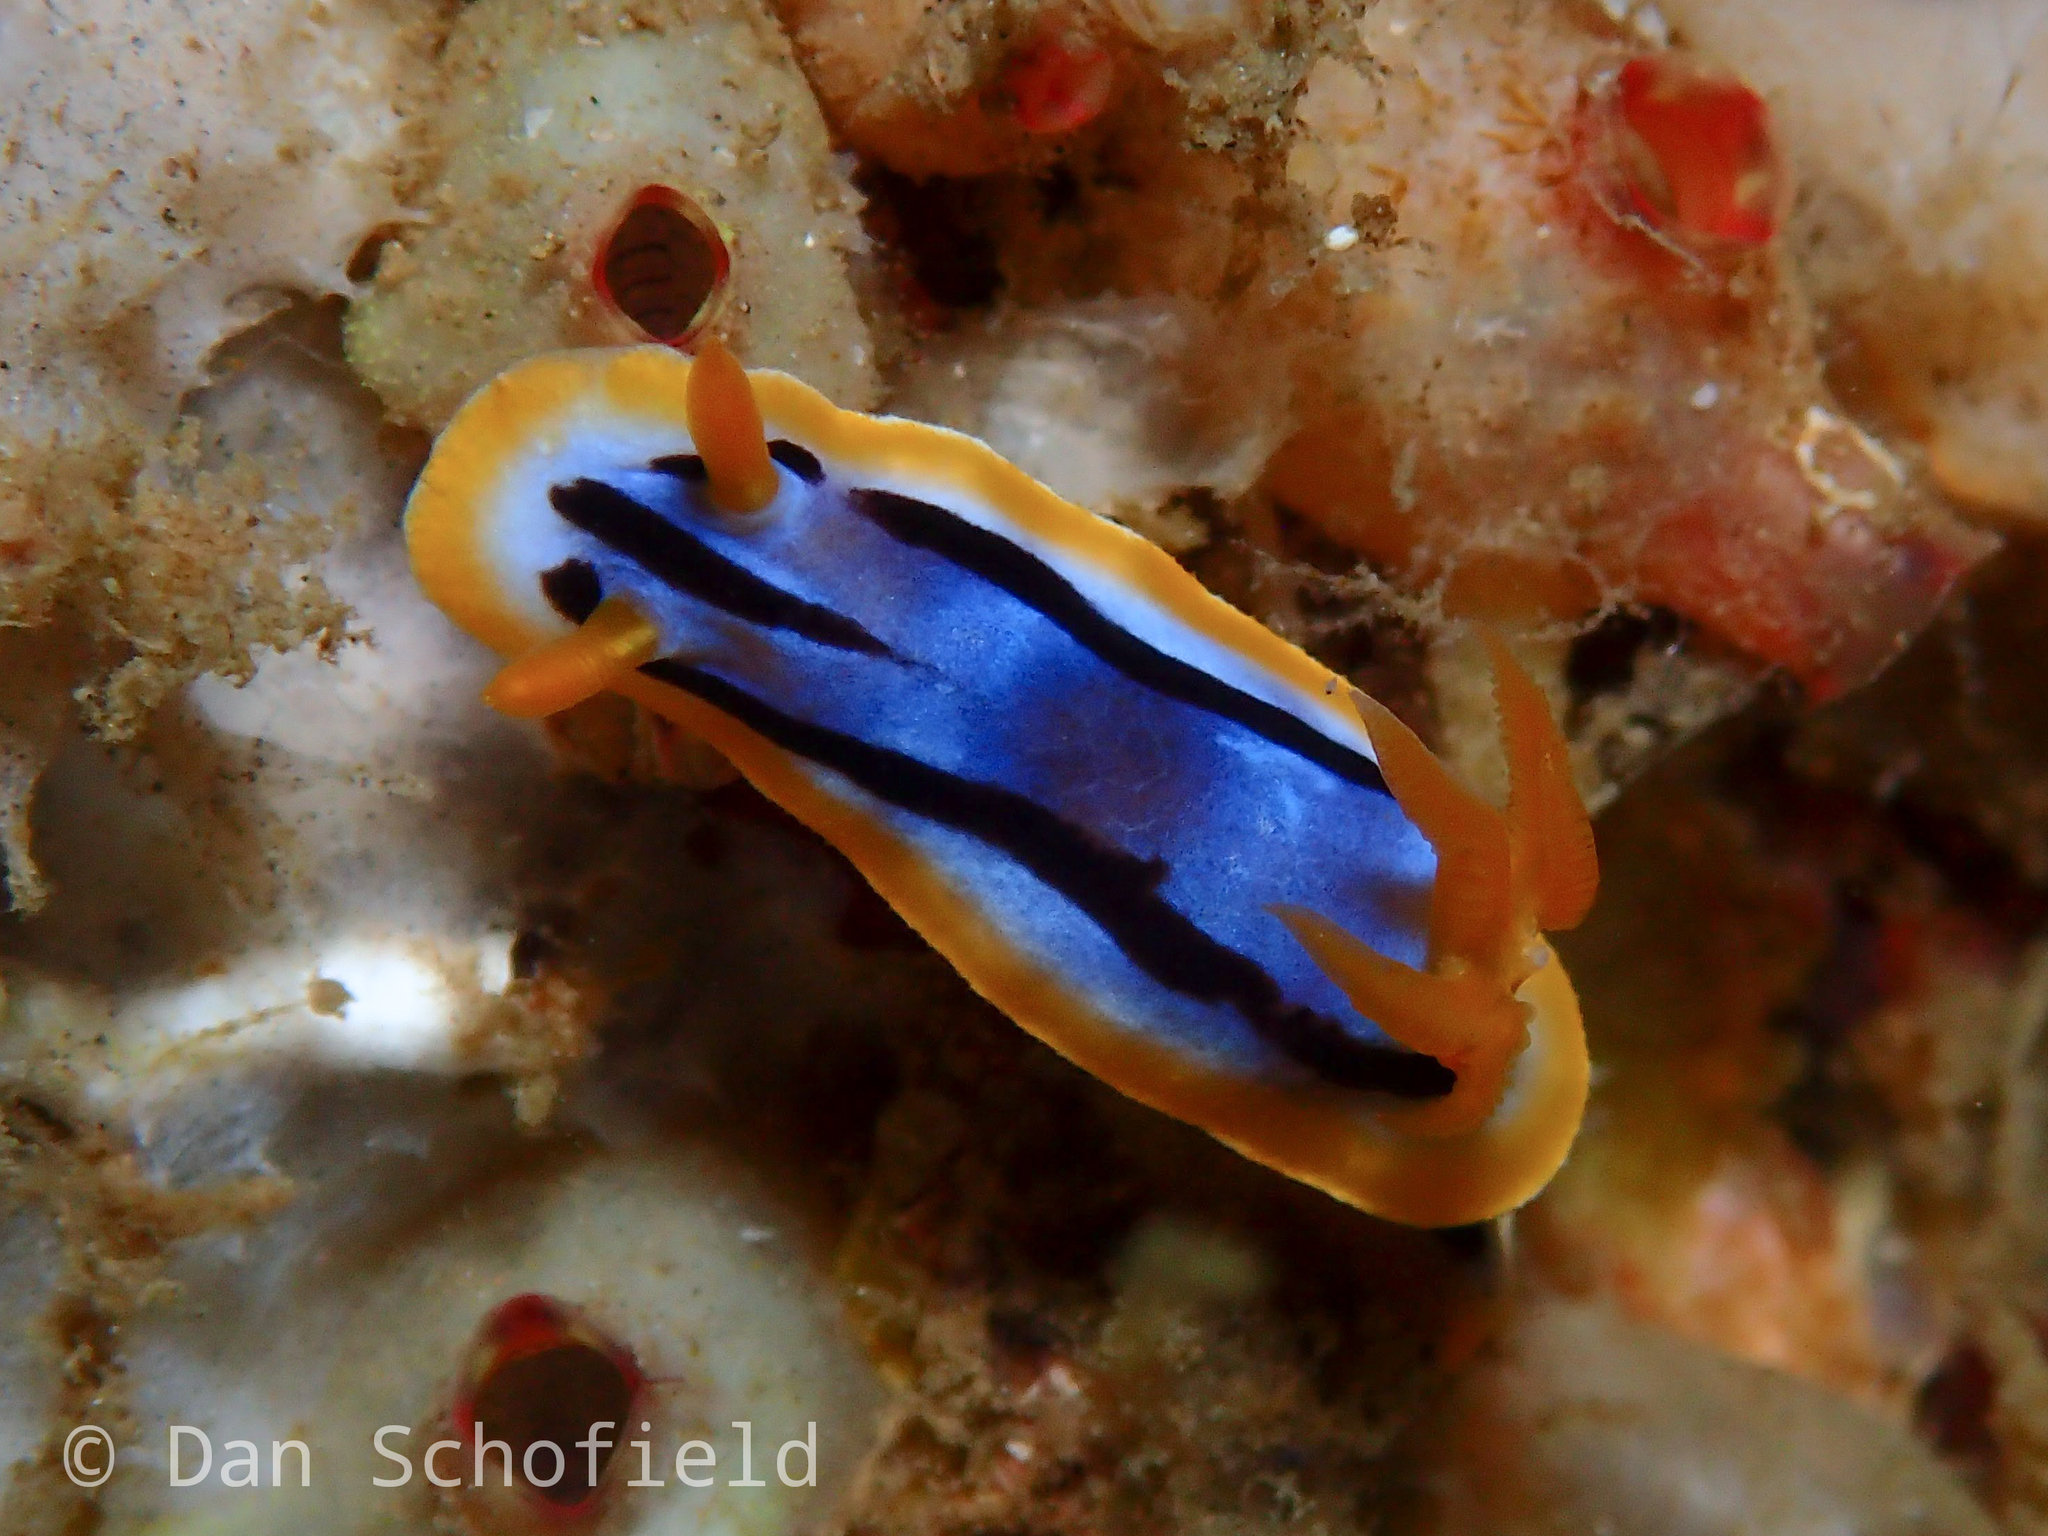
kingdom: Animalia
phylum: Mollusca
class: Gastropoda
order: Nudibranchia
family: Chromodorididae
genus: Chromodoris
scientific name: Chromodoris strigata
